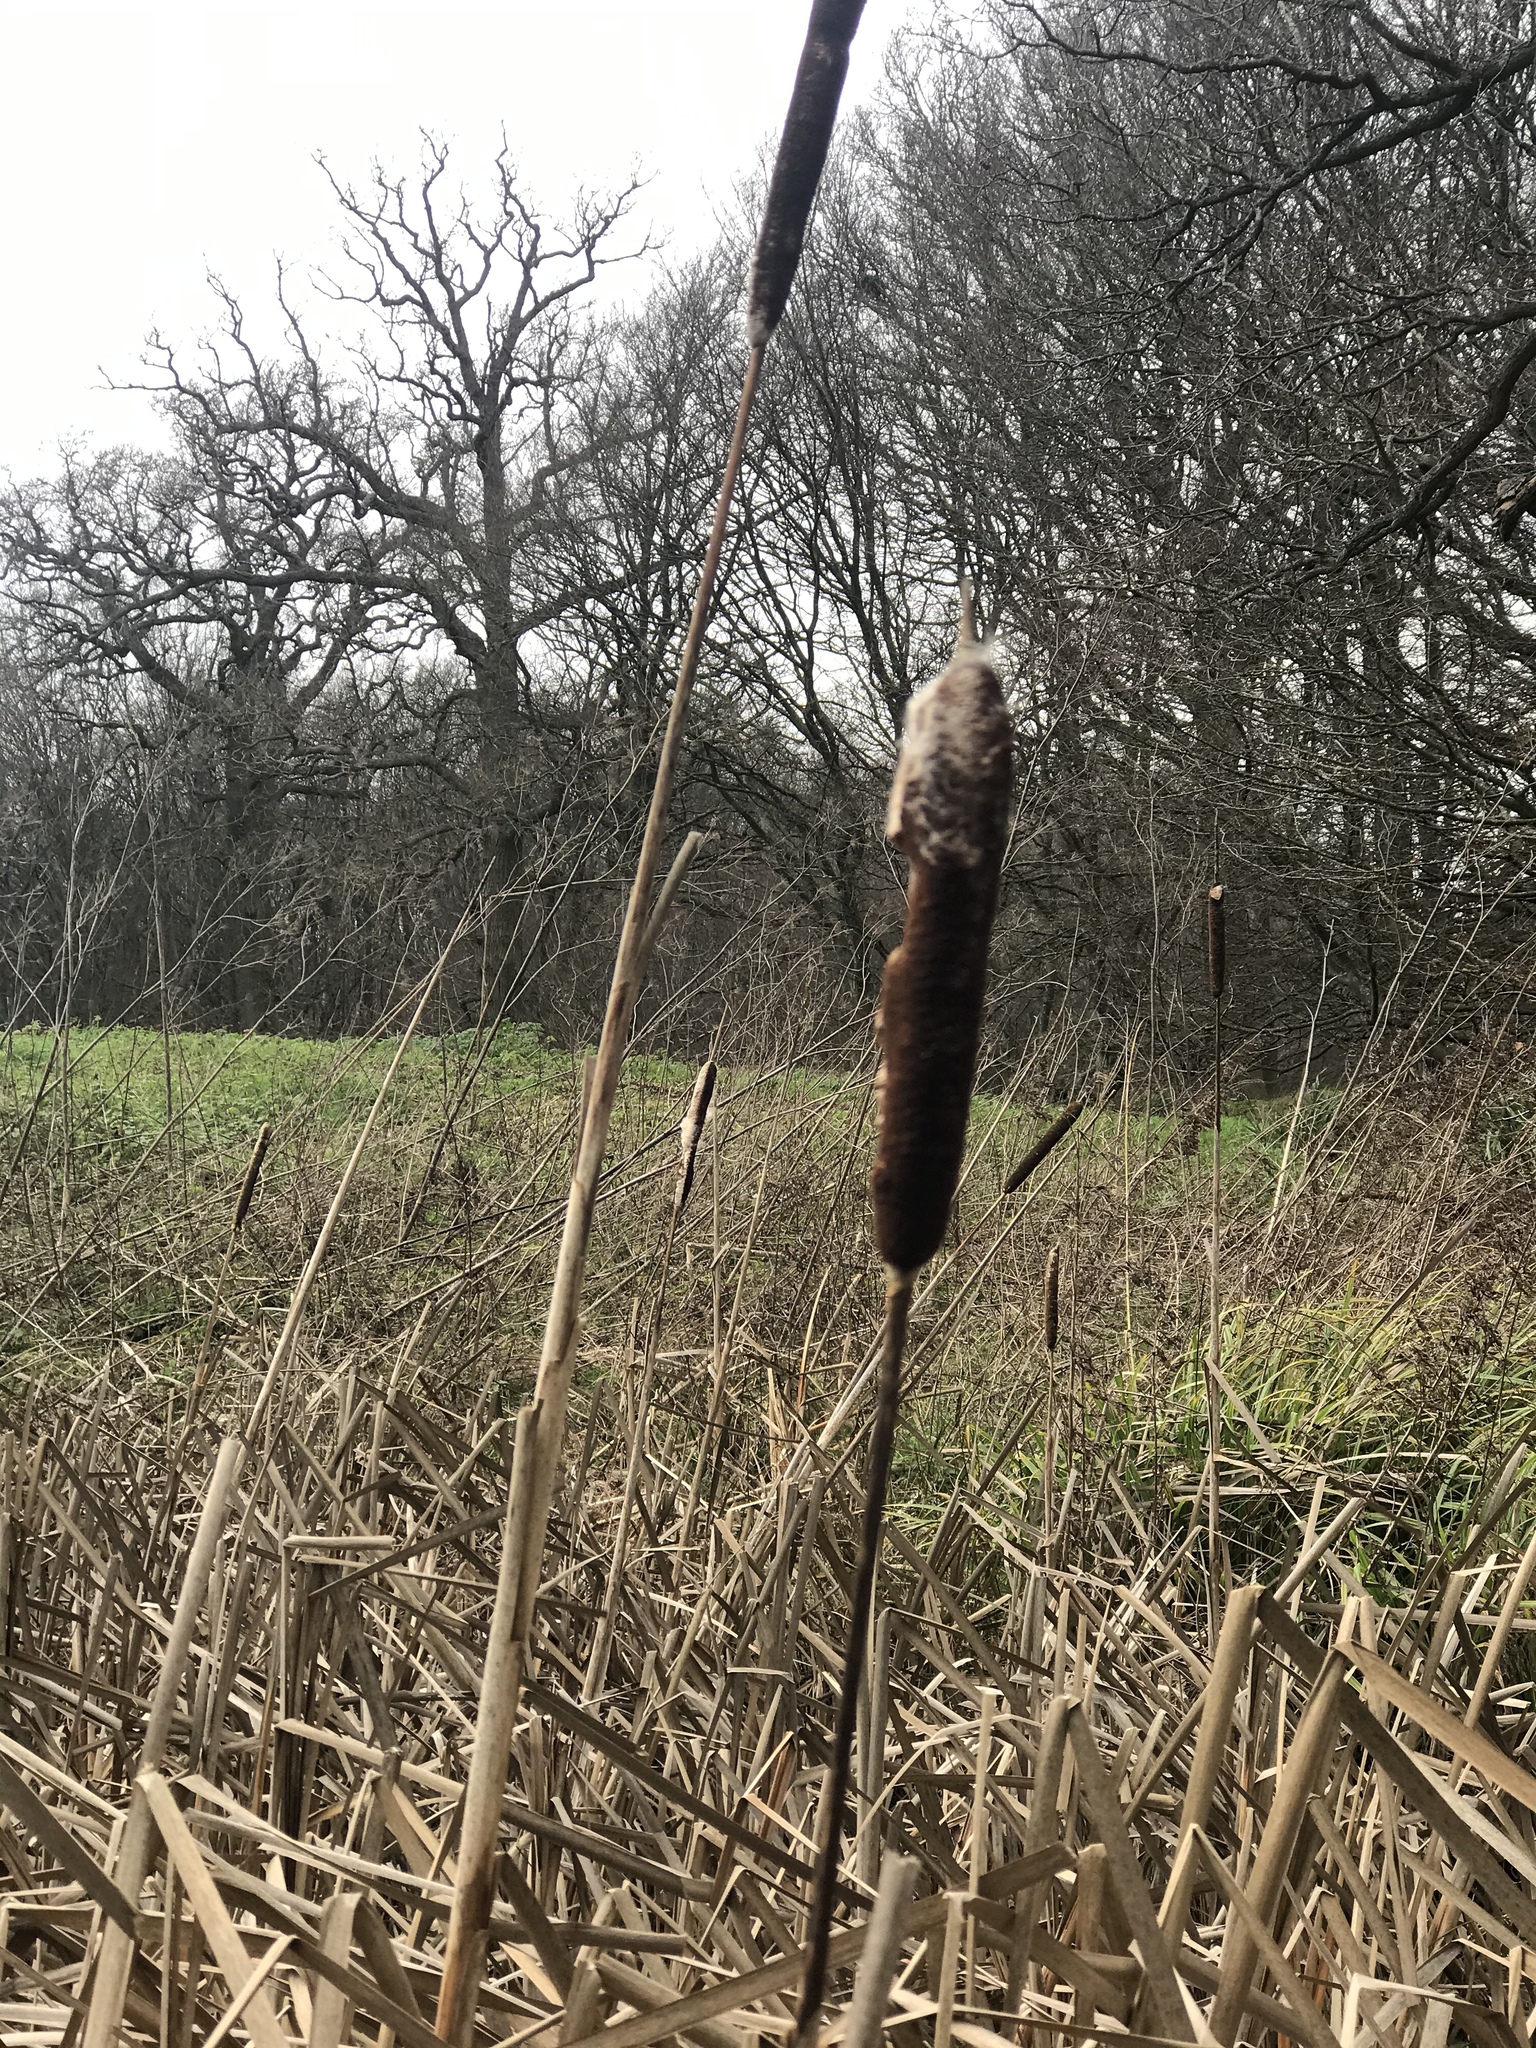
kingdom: Plantae
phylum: Tracheophyta
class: Liliopsida
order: Poales
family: Typhaceae
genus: Typha
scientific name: Typha latifolia
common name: Broadleaf cattail
